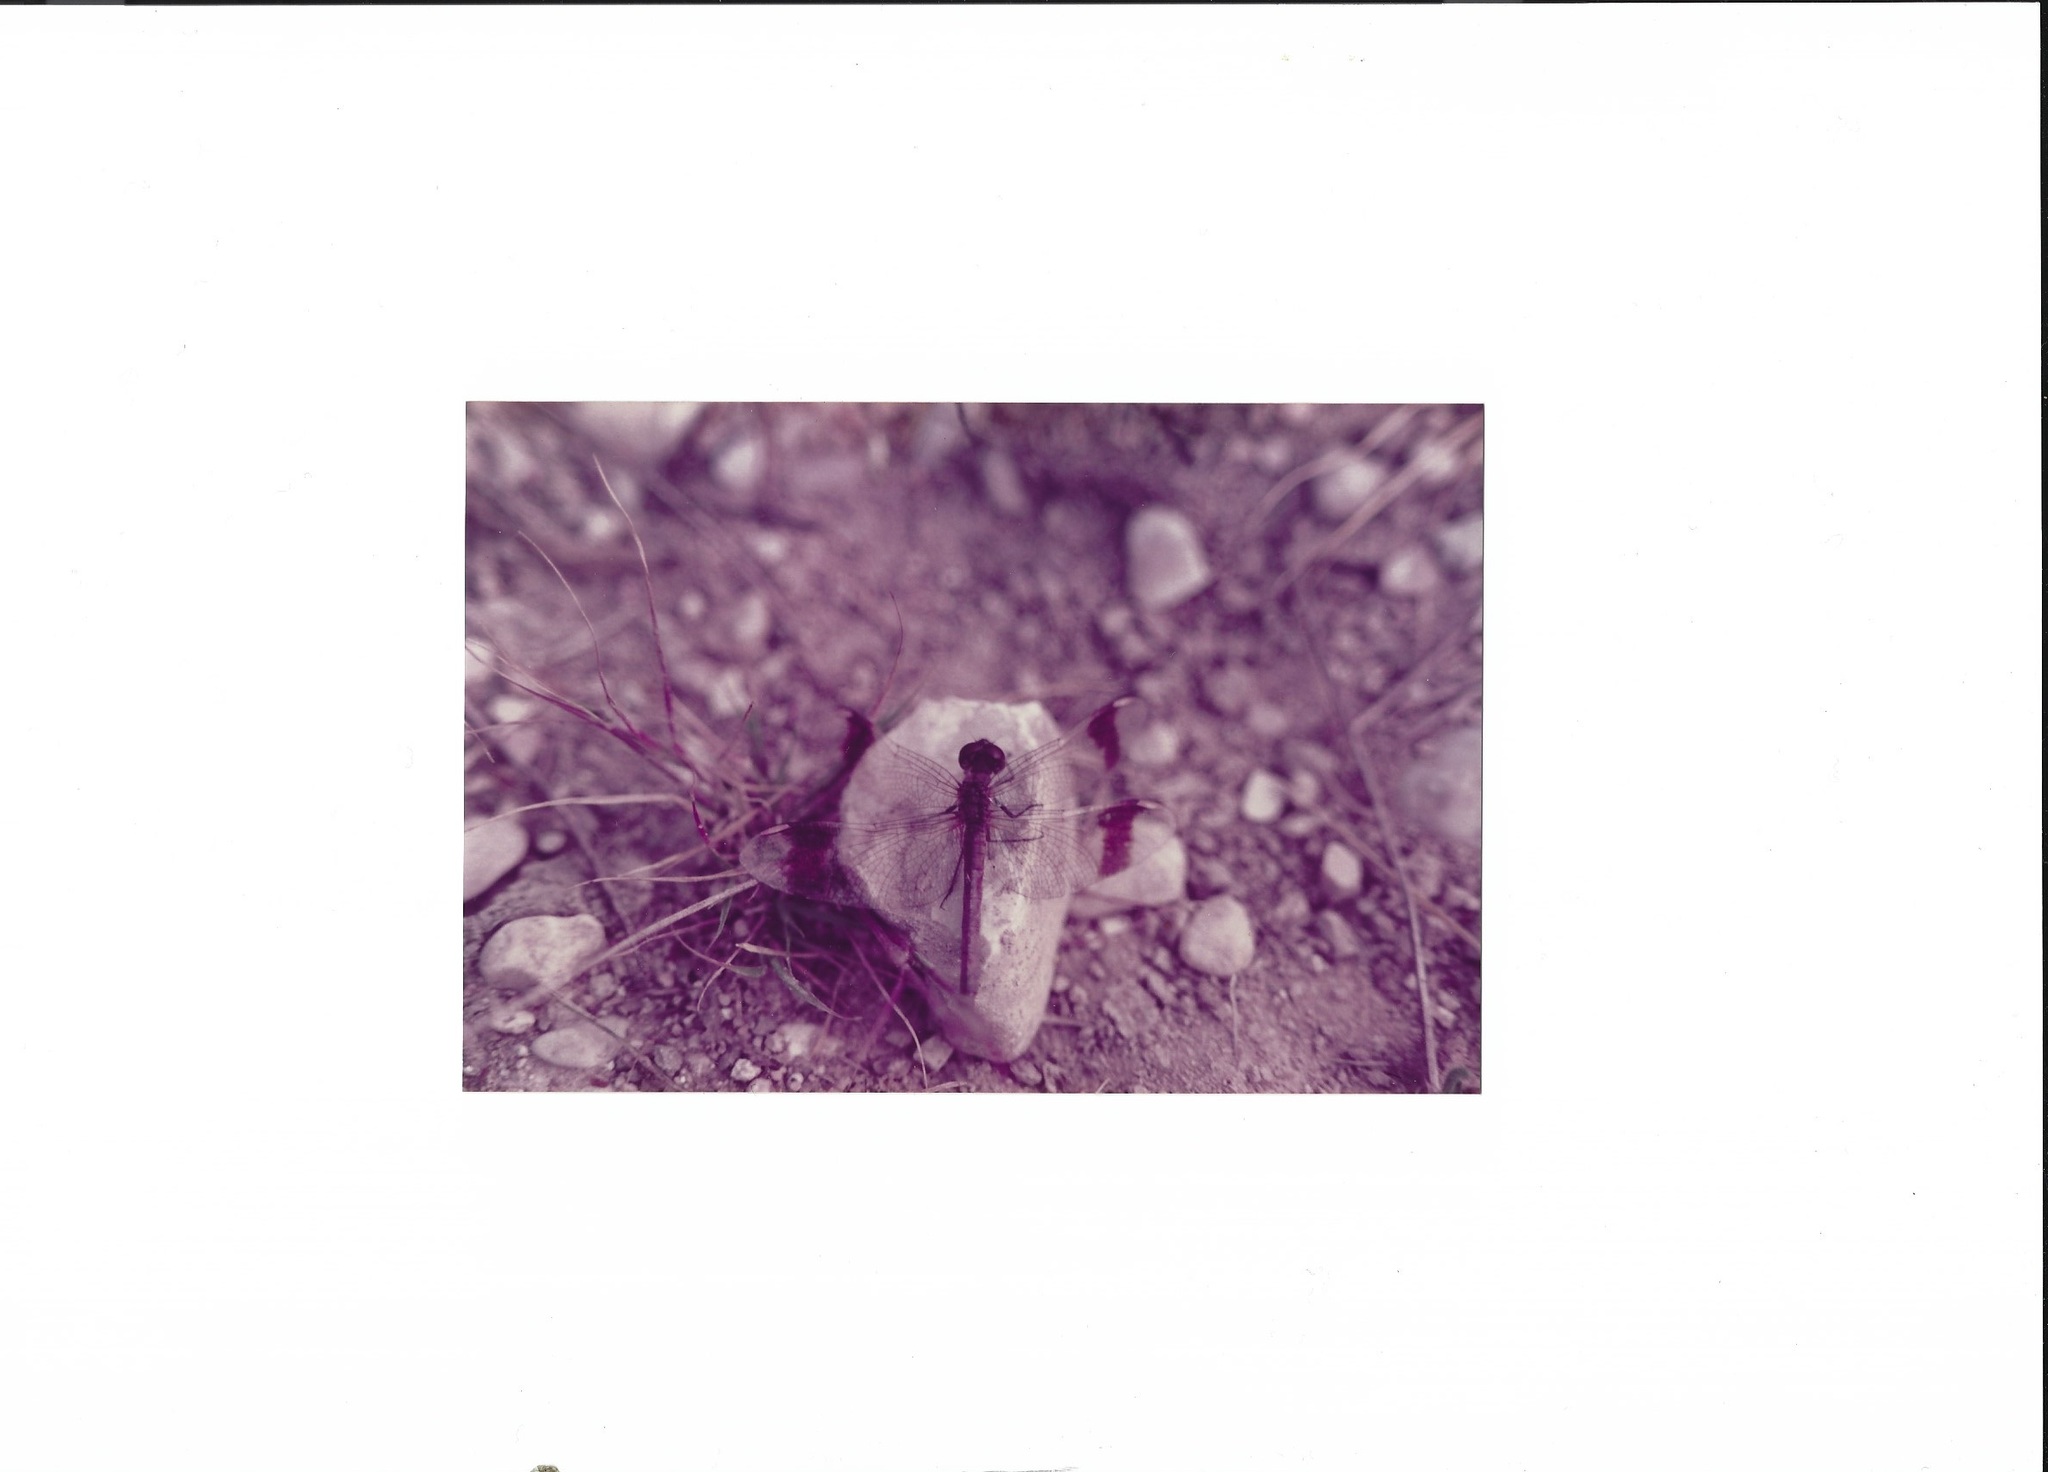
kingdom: Animalia
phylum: Arthropoda
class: Insecta
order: Odonata
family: Libellulidae
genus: Sympetrum
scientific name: Sympetrum pedemontanum
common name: Banded darter
